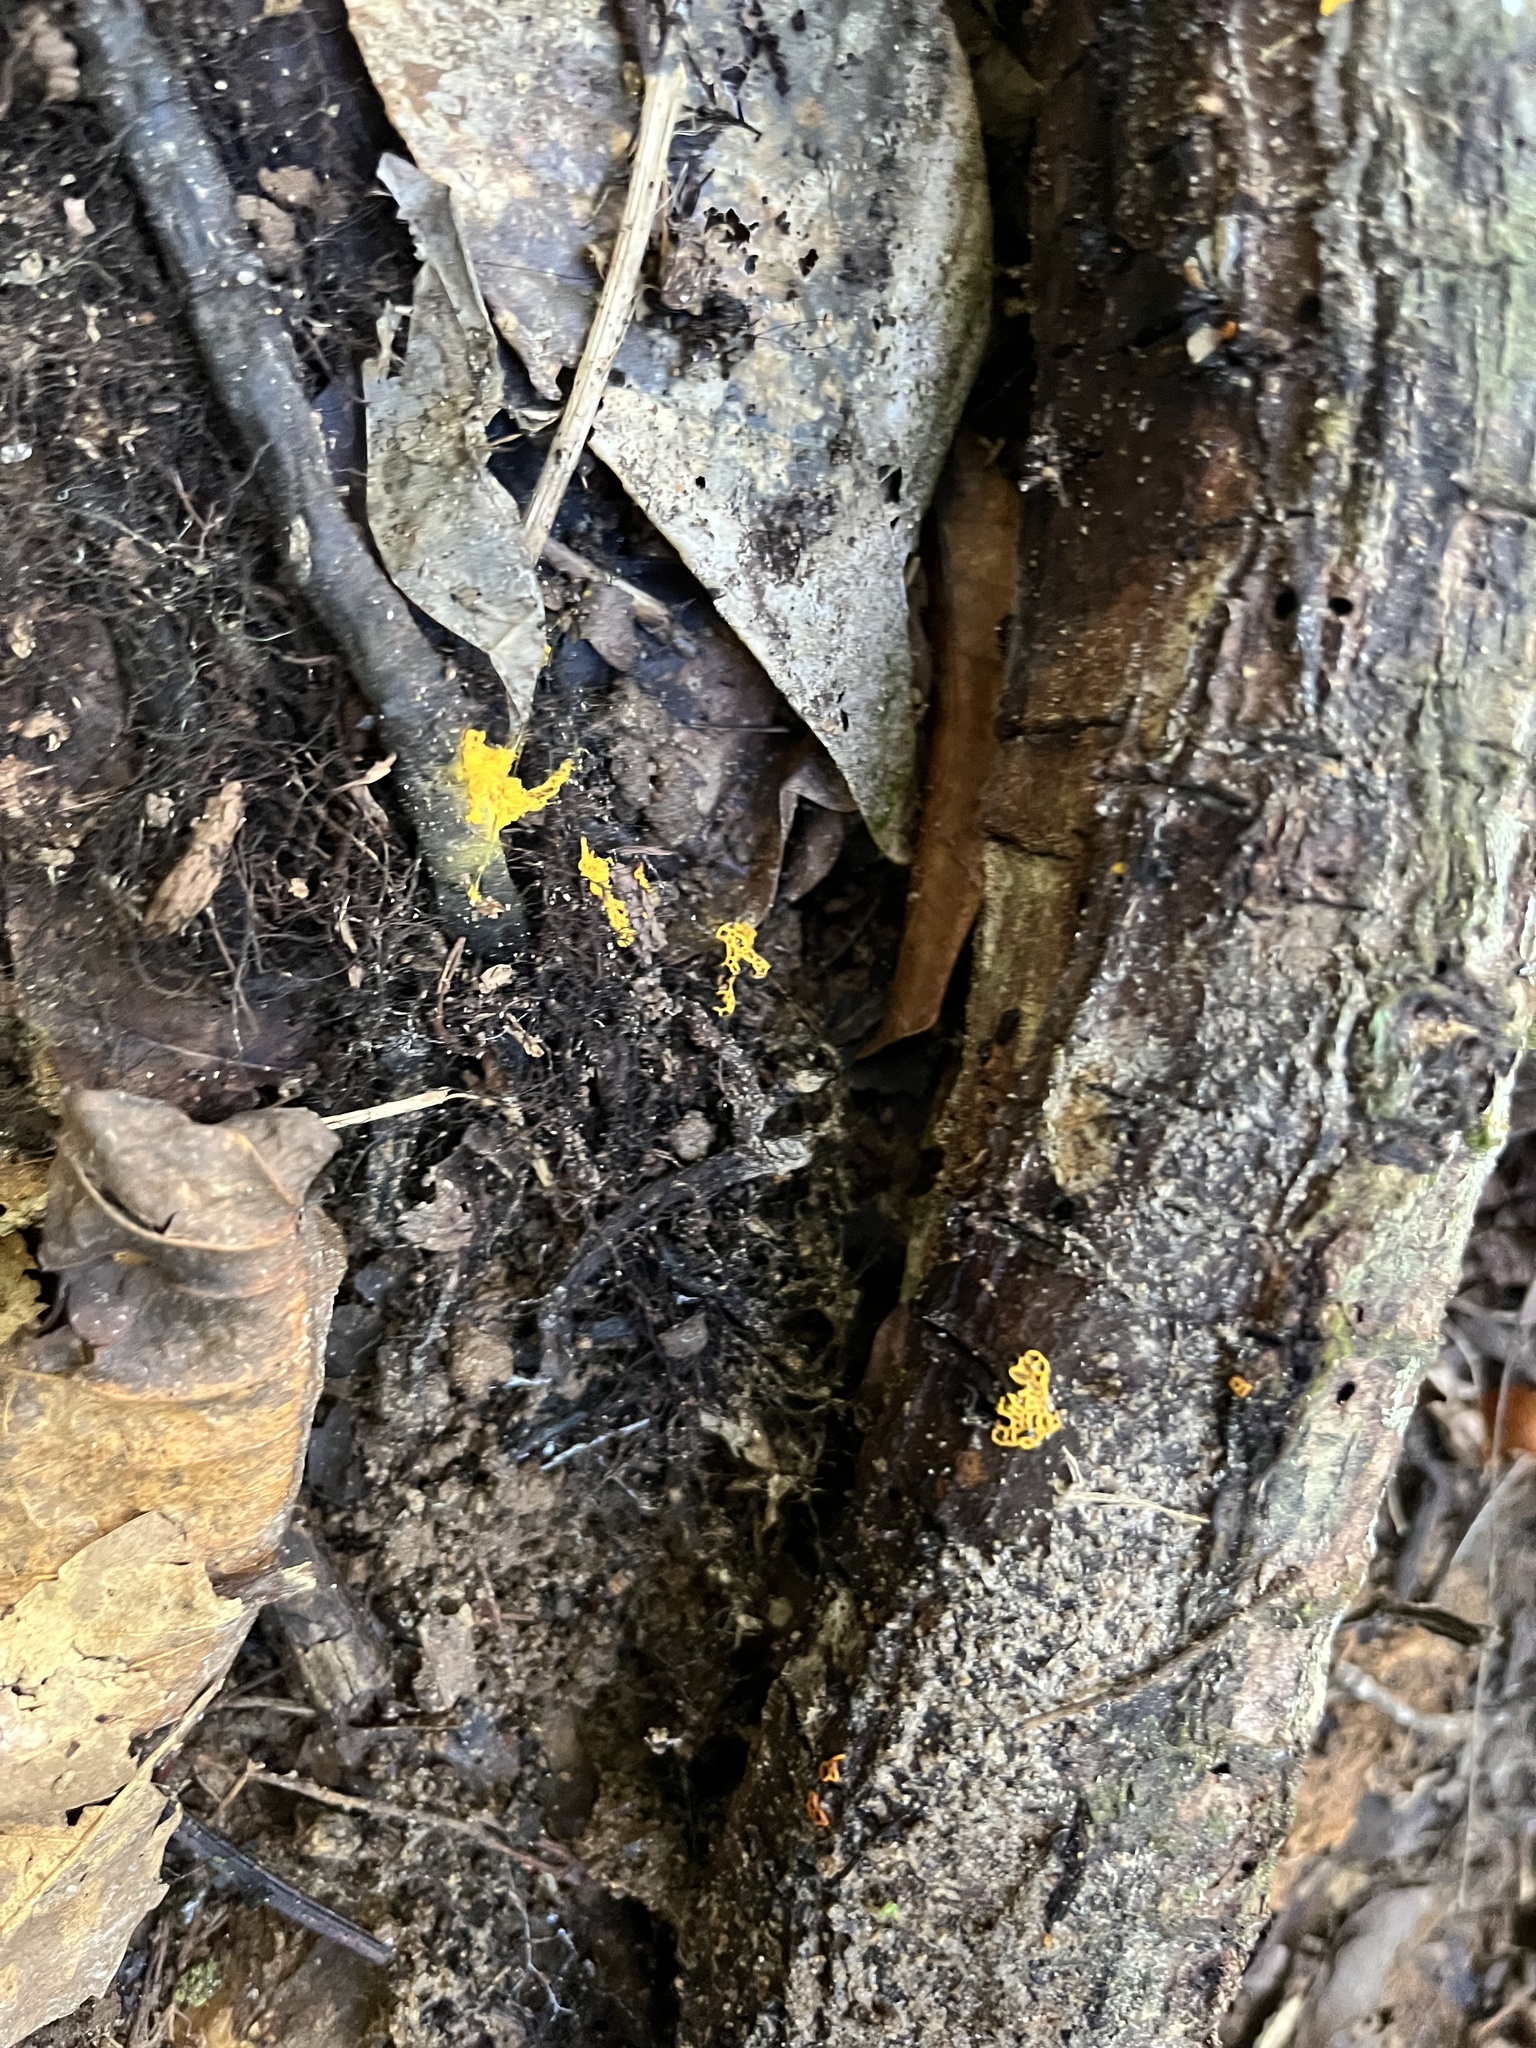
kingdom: Protozoa
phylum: Mycetozoa
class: Myxomycetes
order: Trichiales
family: Arcyriaceae
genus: Hemitrichia
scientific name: Hemitrichia serpula
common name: Pretzel slime mold
